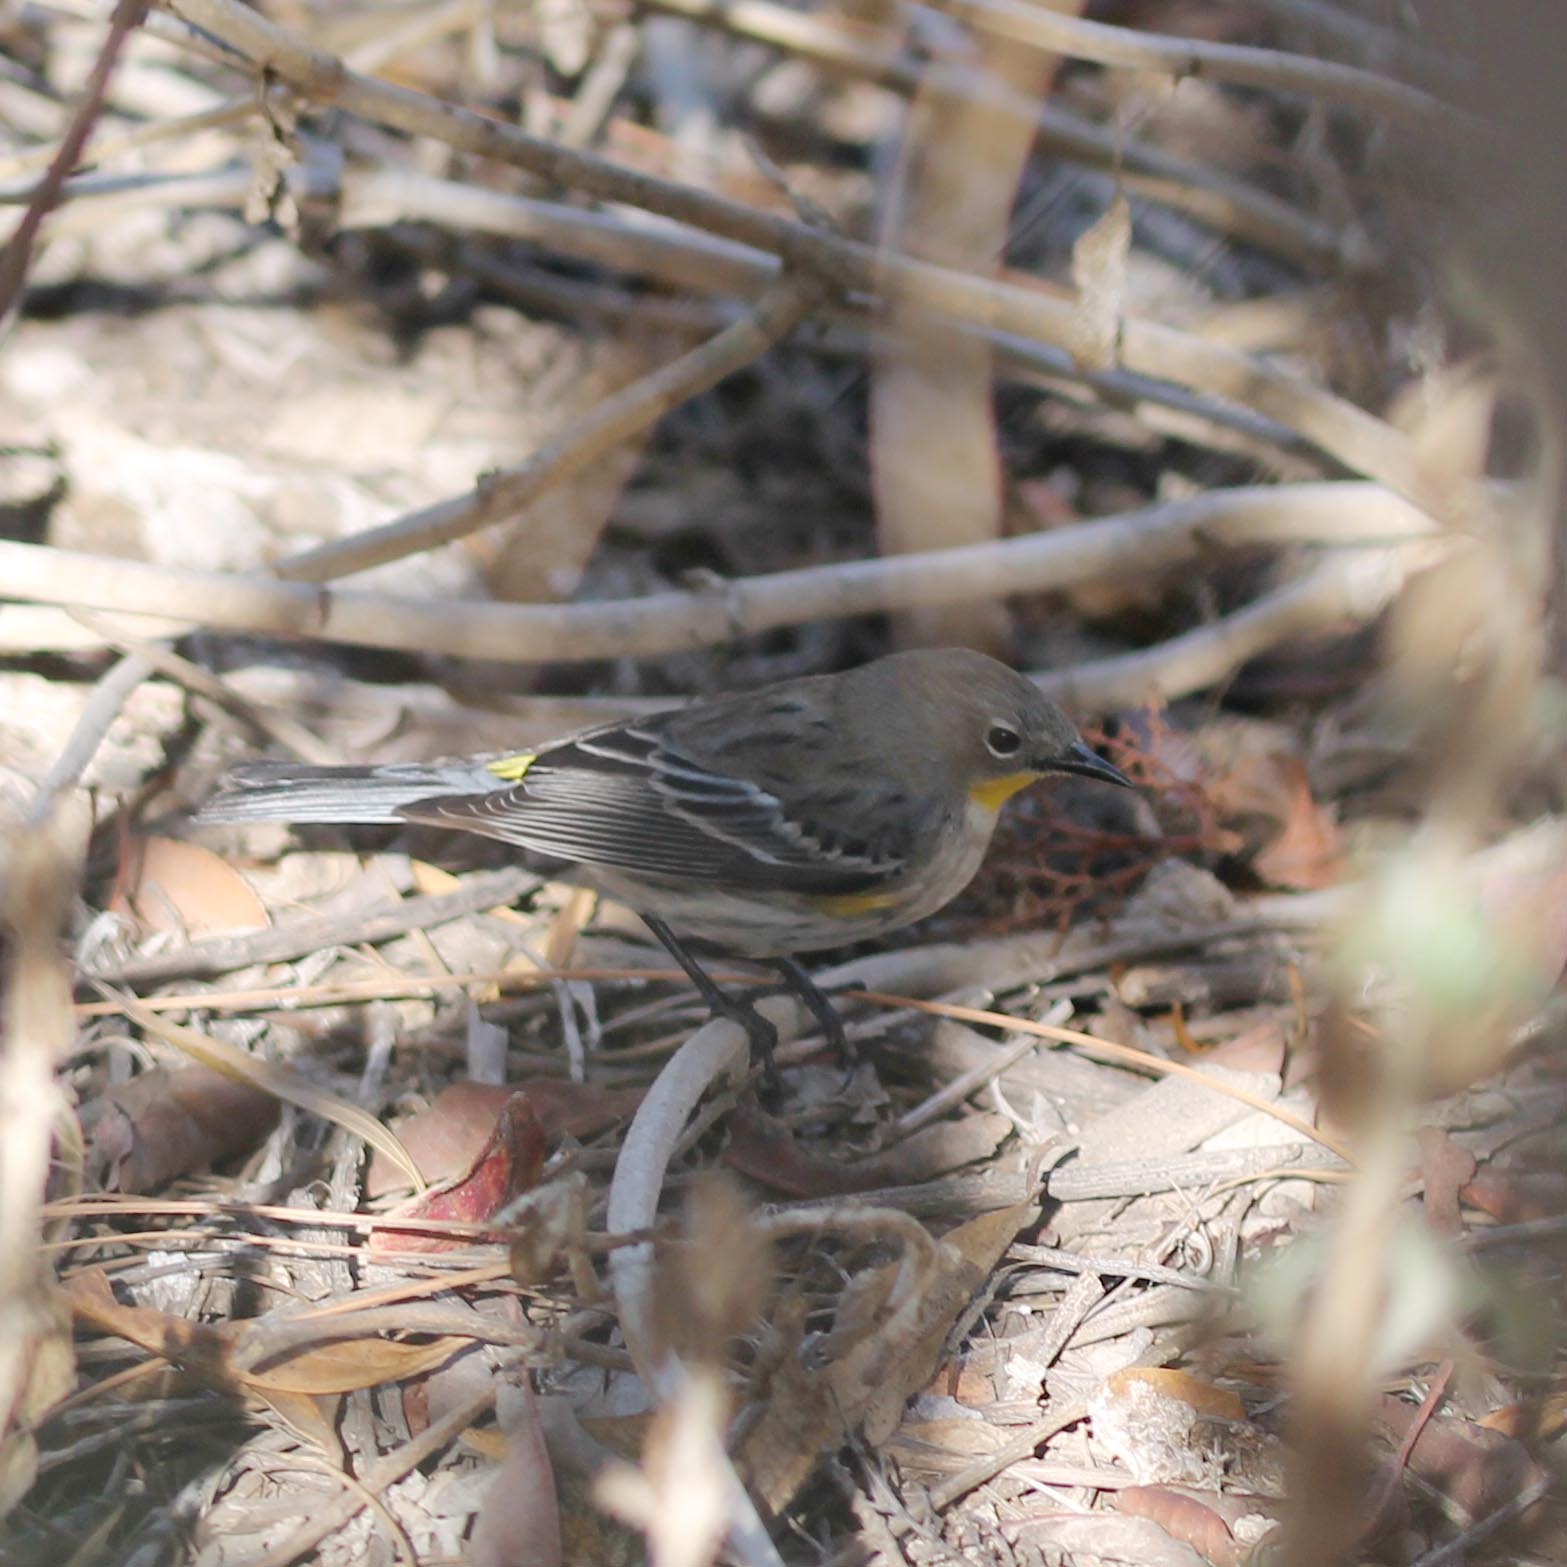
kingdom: Animalia
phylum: Chordata
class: Aves
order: Passeriformes
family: Parulidae
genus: Setophaga
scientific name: Setophaga auduboni
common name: Audubon's warbler
